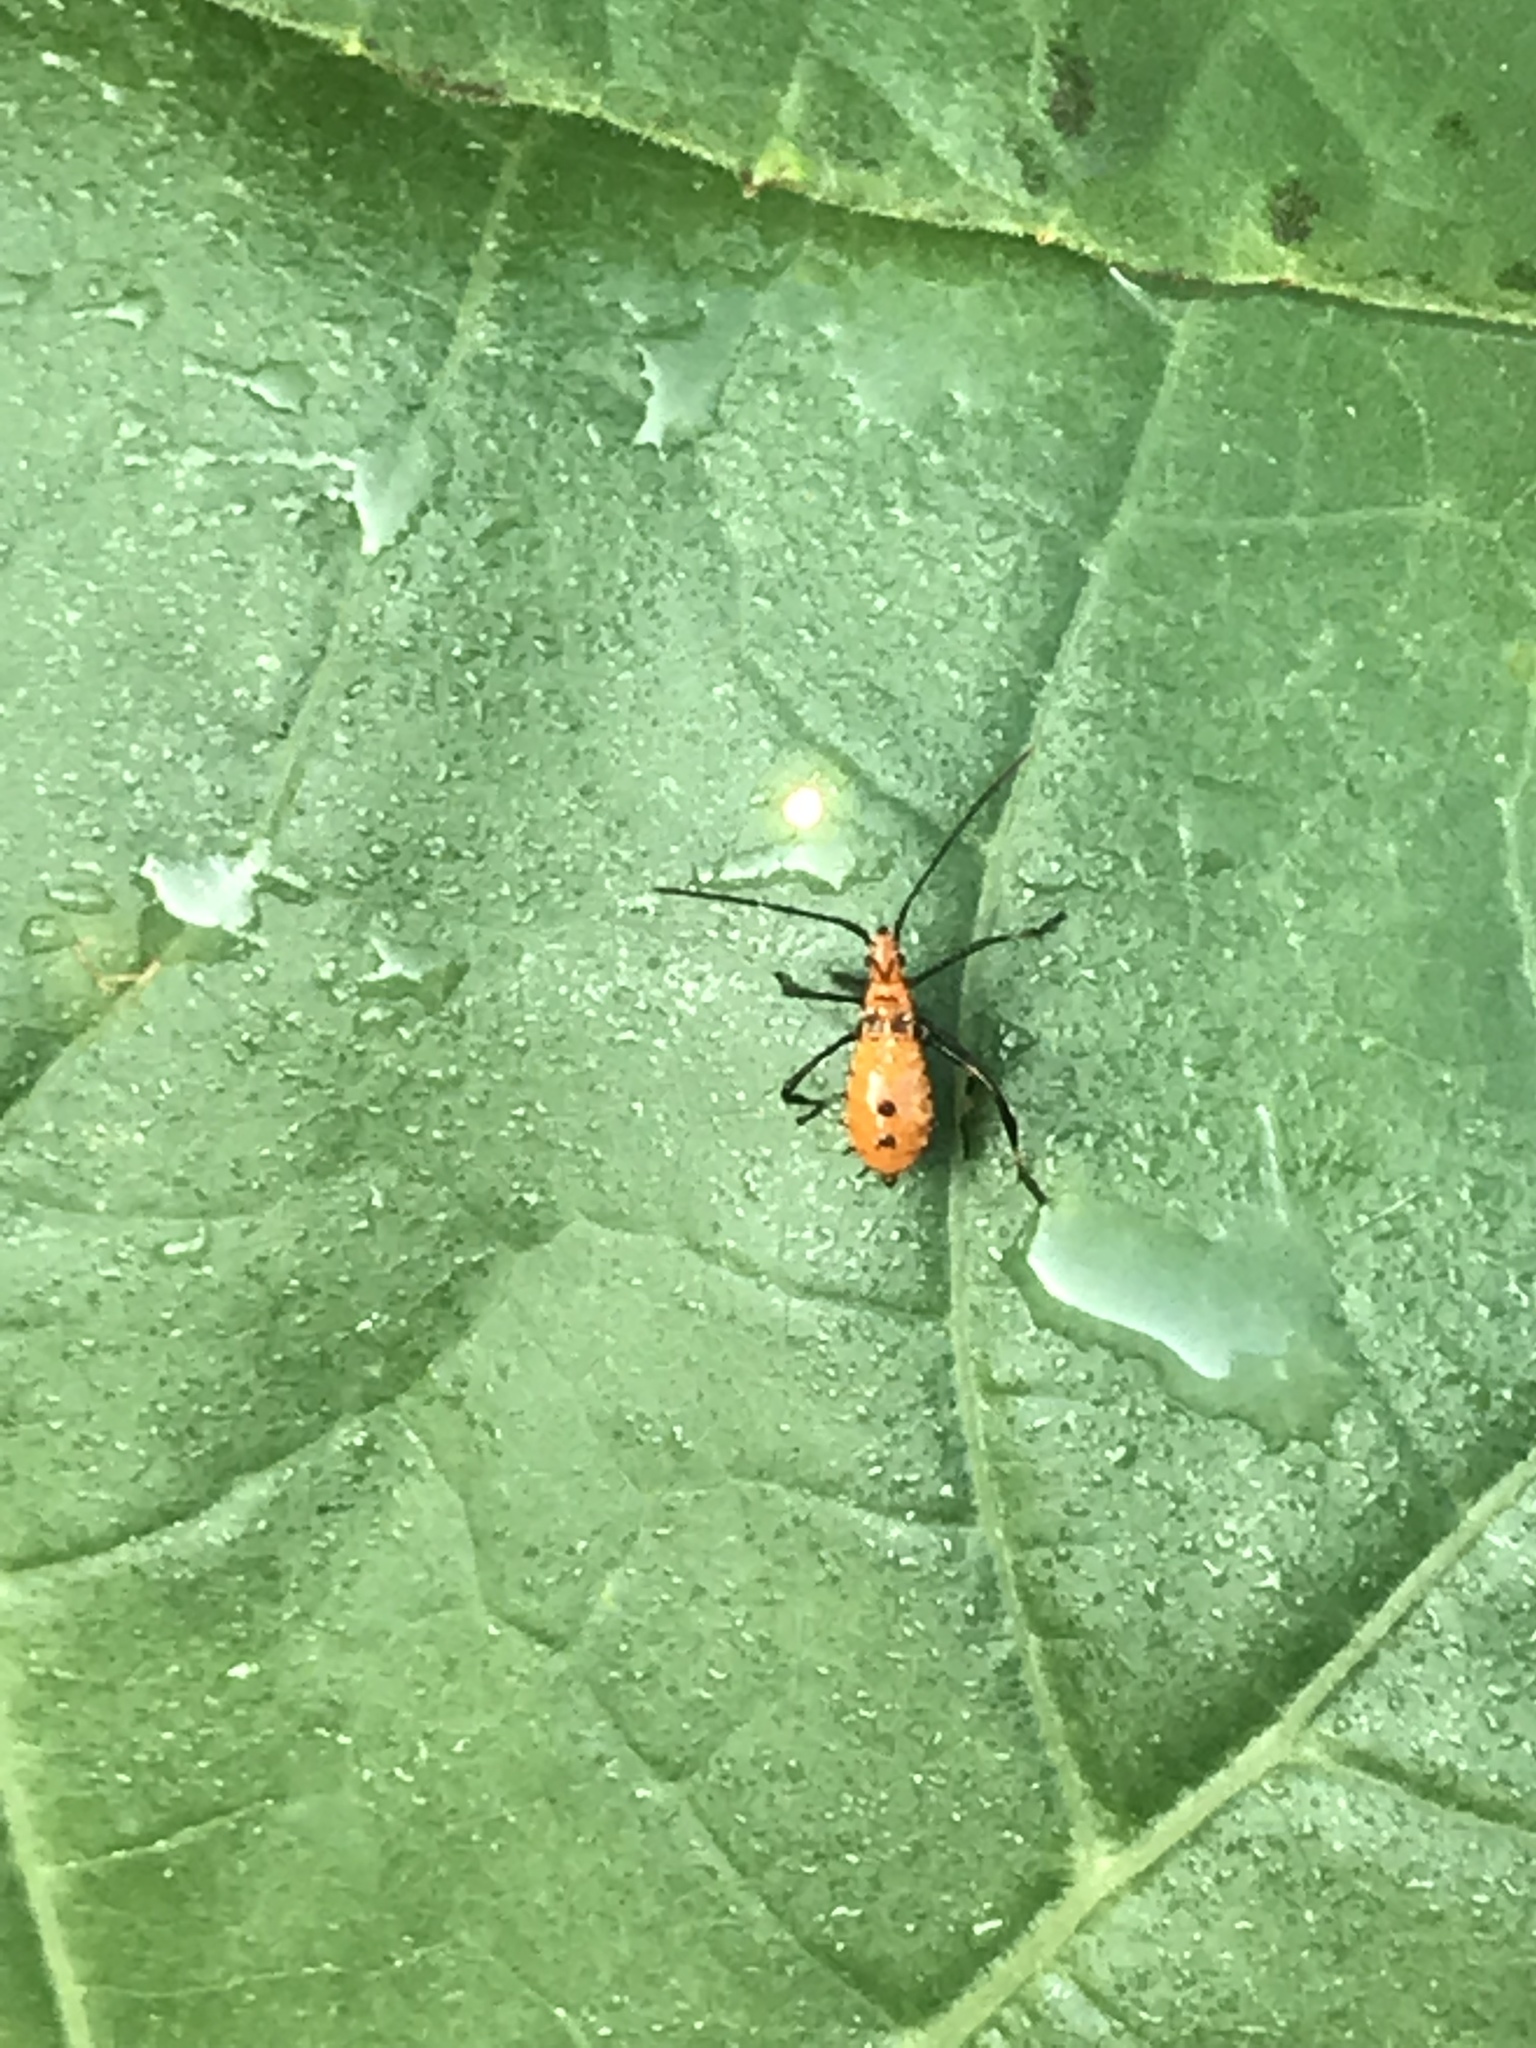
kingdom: Animalia
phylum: Arthropoda
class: Insecta
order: Hemiptera
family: Coreidae
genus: Leptoglossus
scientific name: Leptoglossus phyllopus
